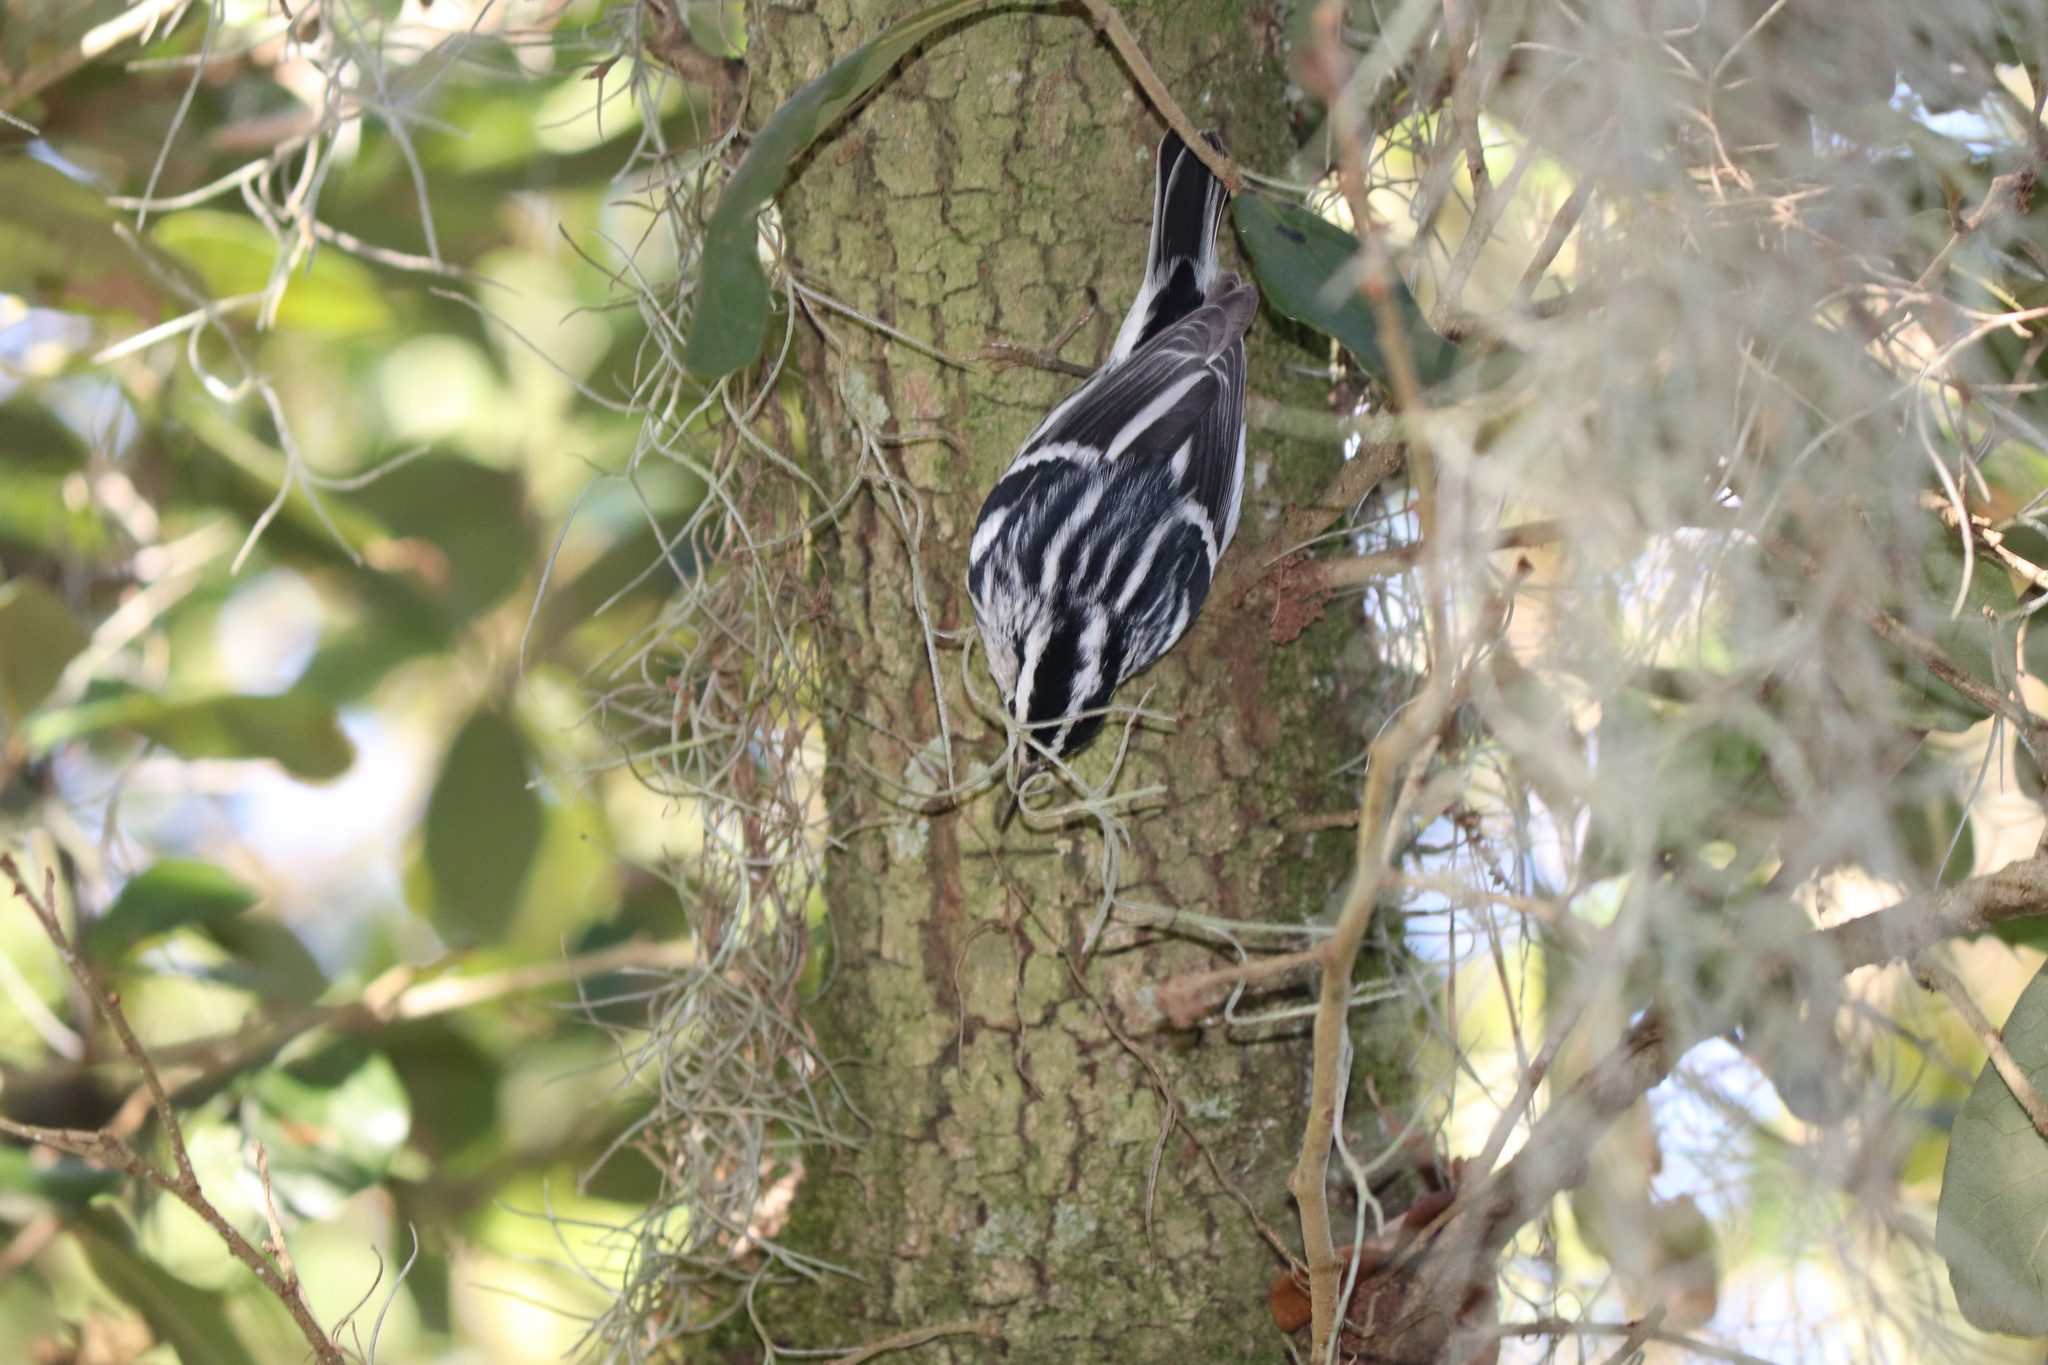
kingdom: Animalia
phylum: Chordata
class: Aves
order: Passeriformes
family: Parulidae
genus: Mniotilta
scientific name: Mniotilta varia
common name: Black-and-white warbler
